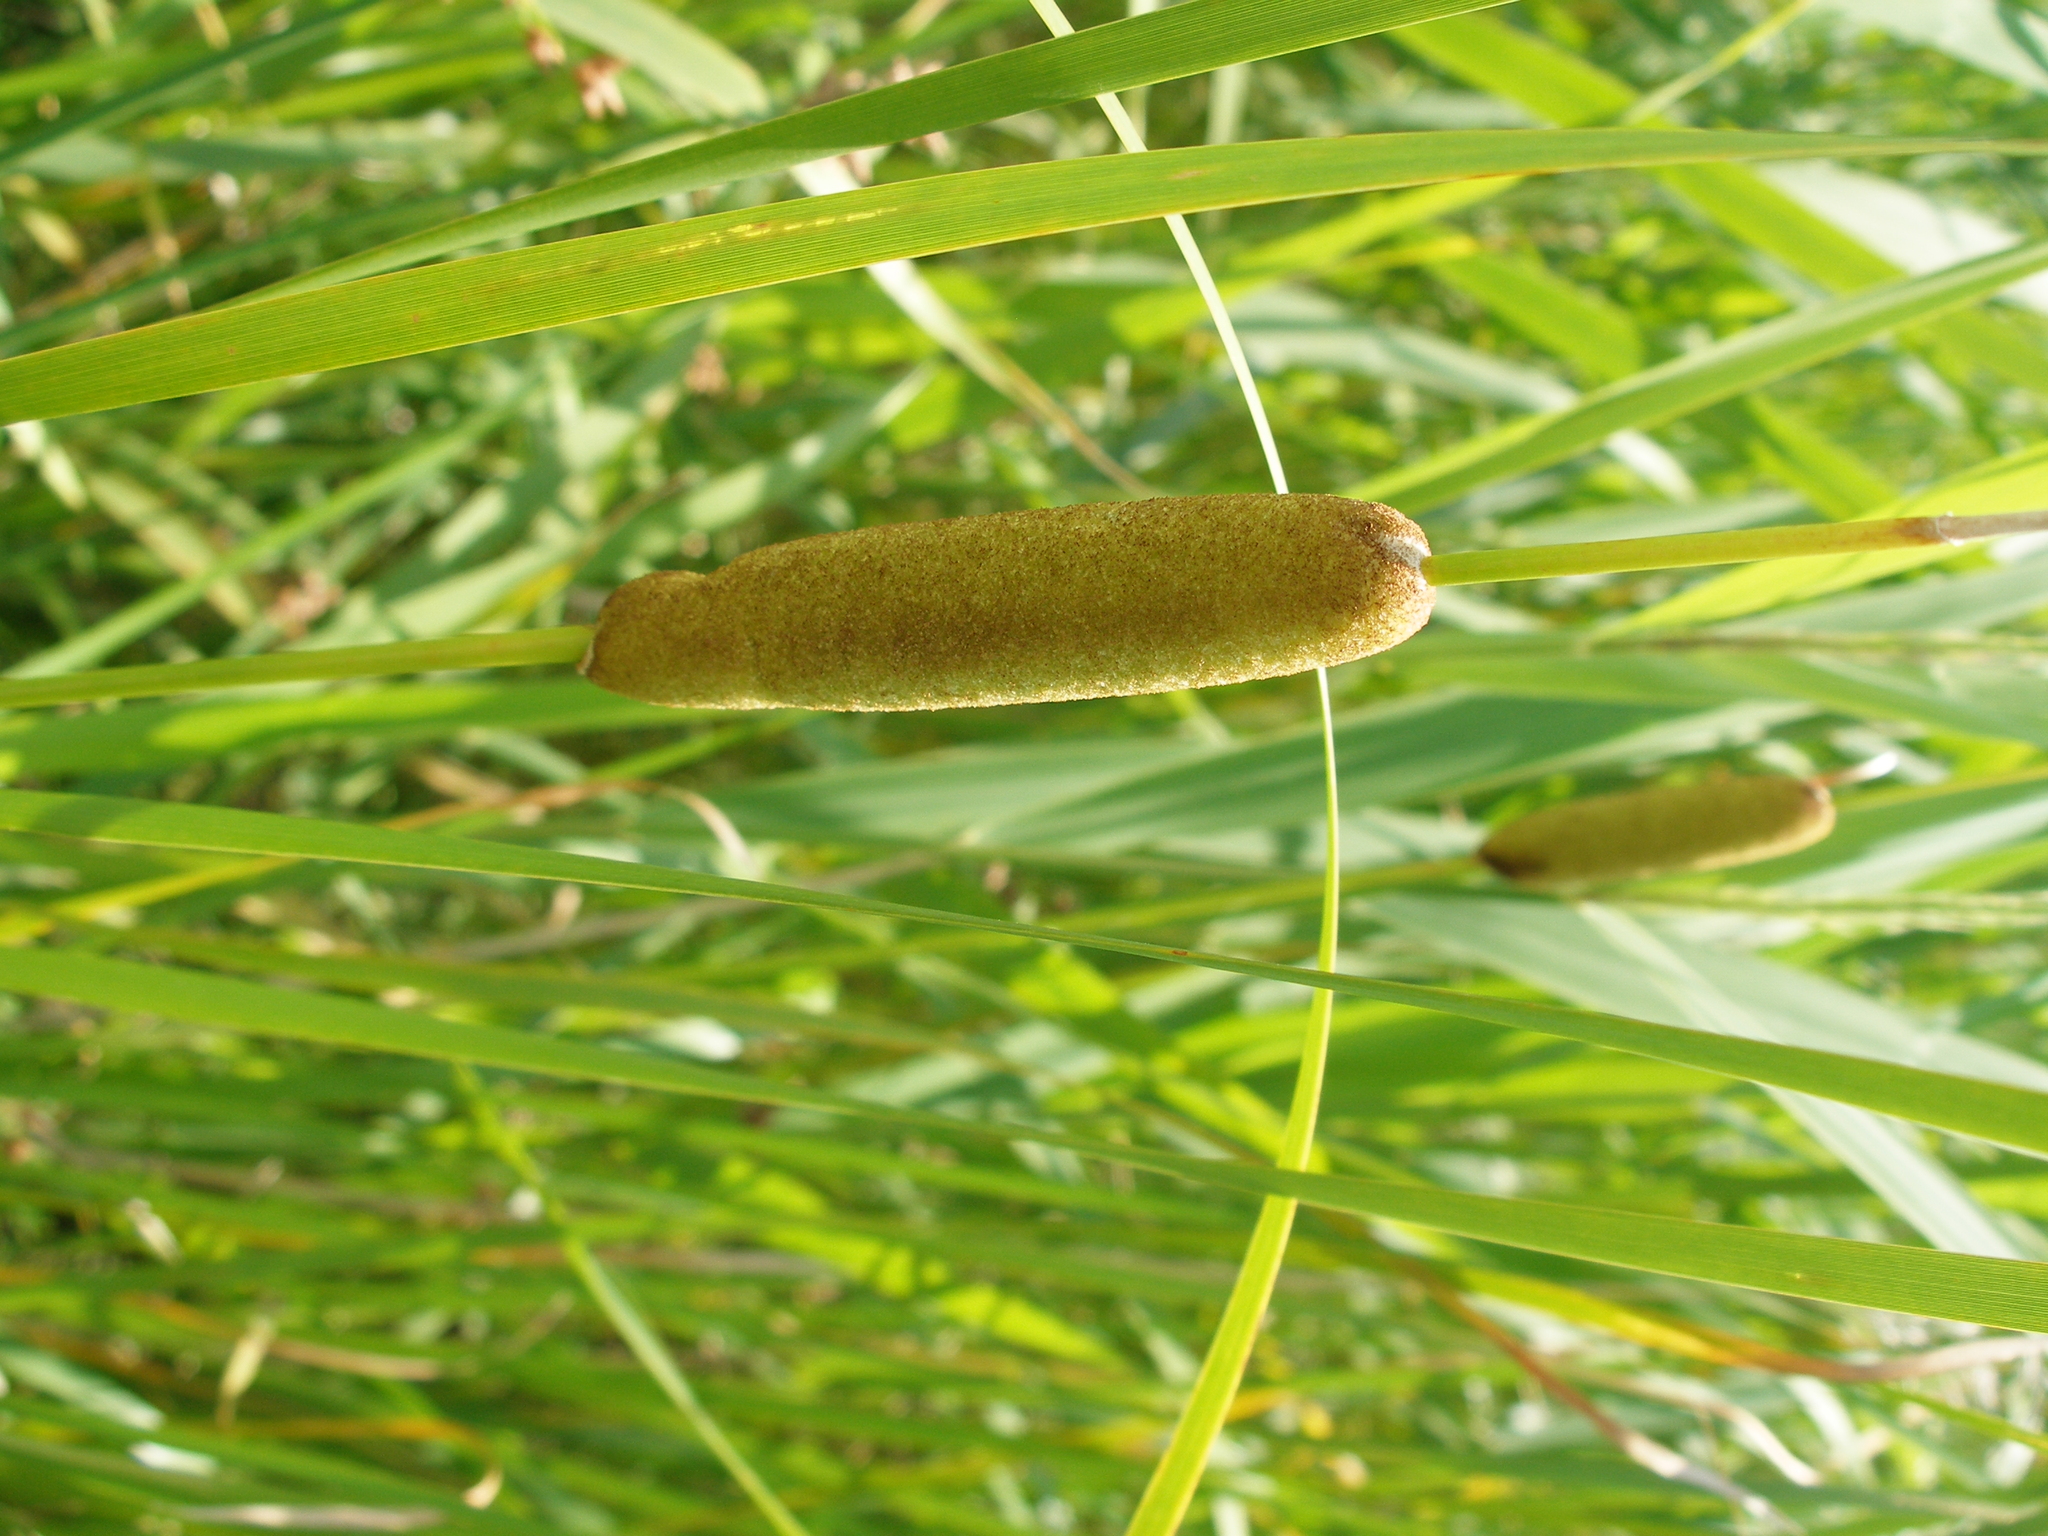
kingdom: Plantae
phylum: Tracheophyta
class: Liliopsida
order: Poales
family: Typhaceae
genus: Typha
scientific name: Typha laxmannii
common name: Laxman’s bulrush
